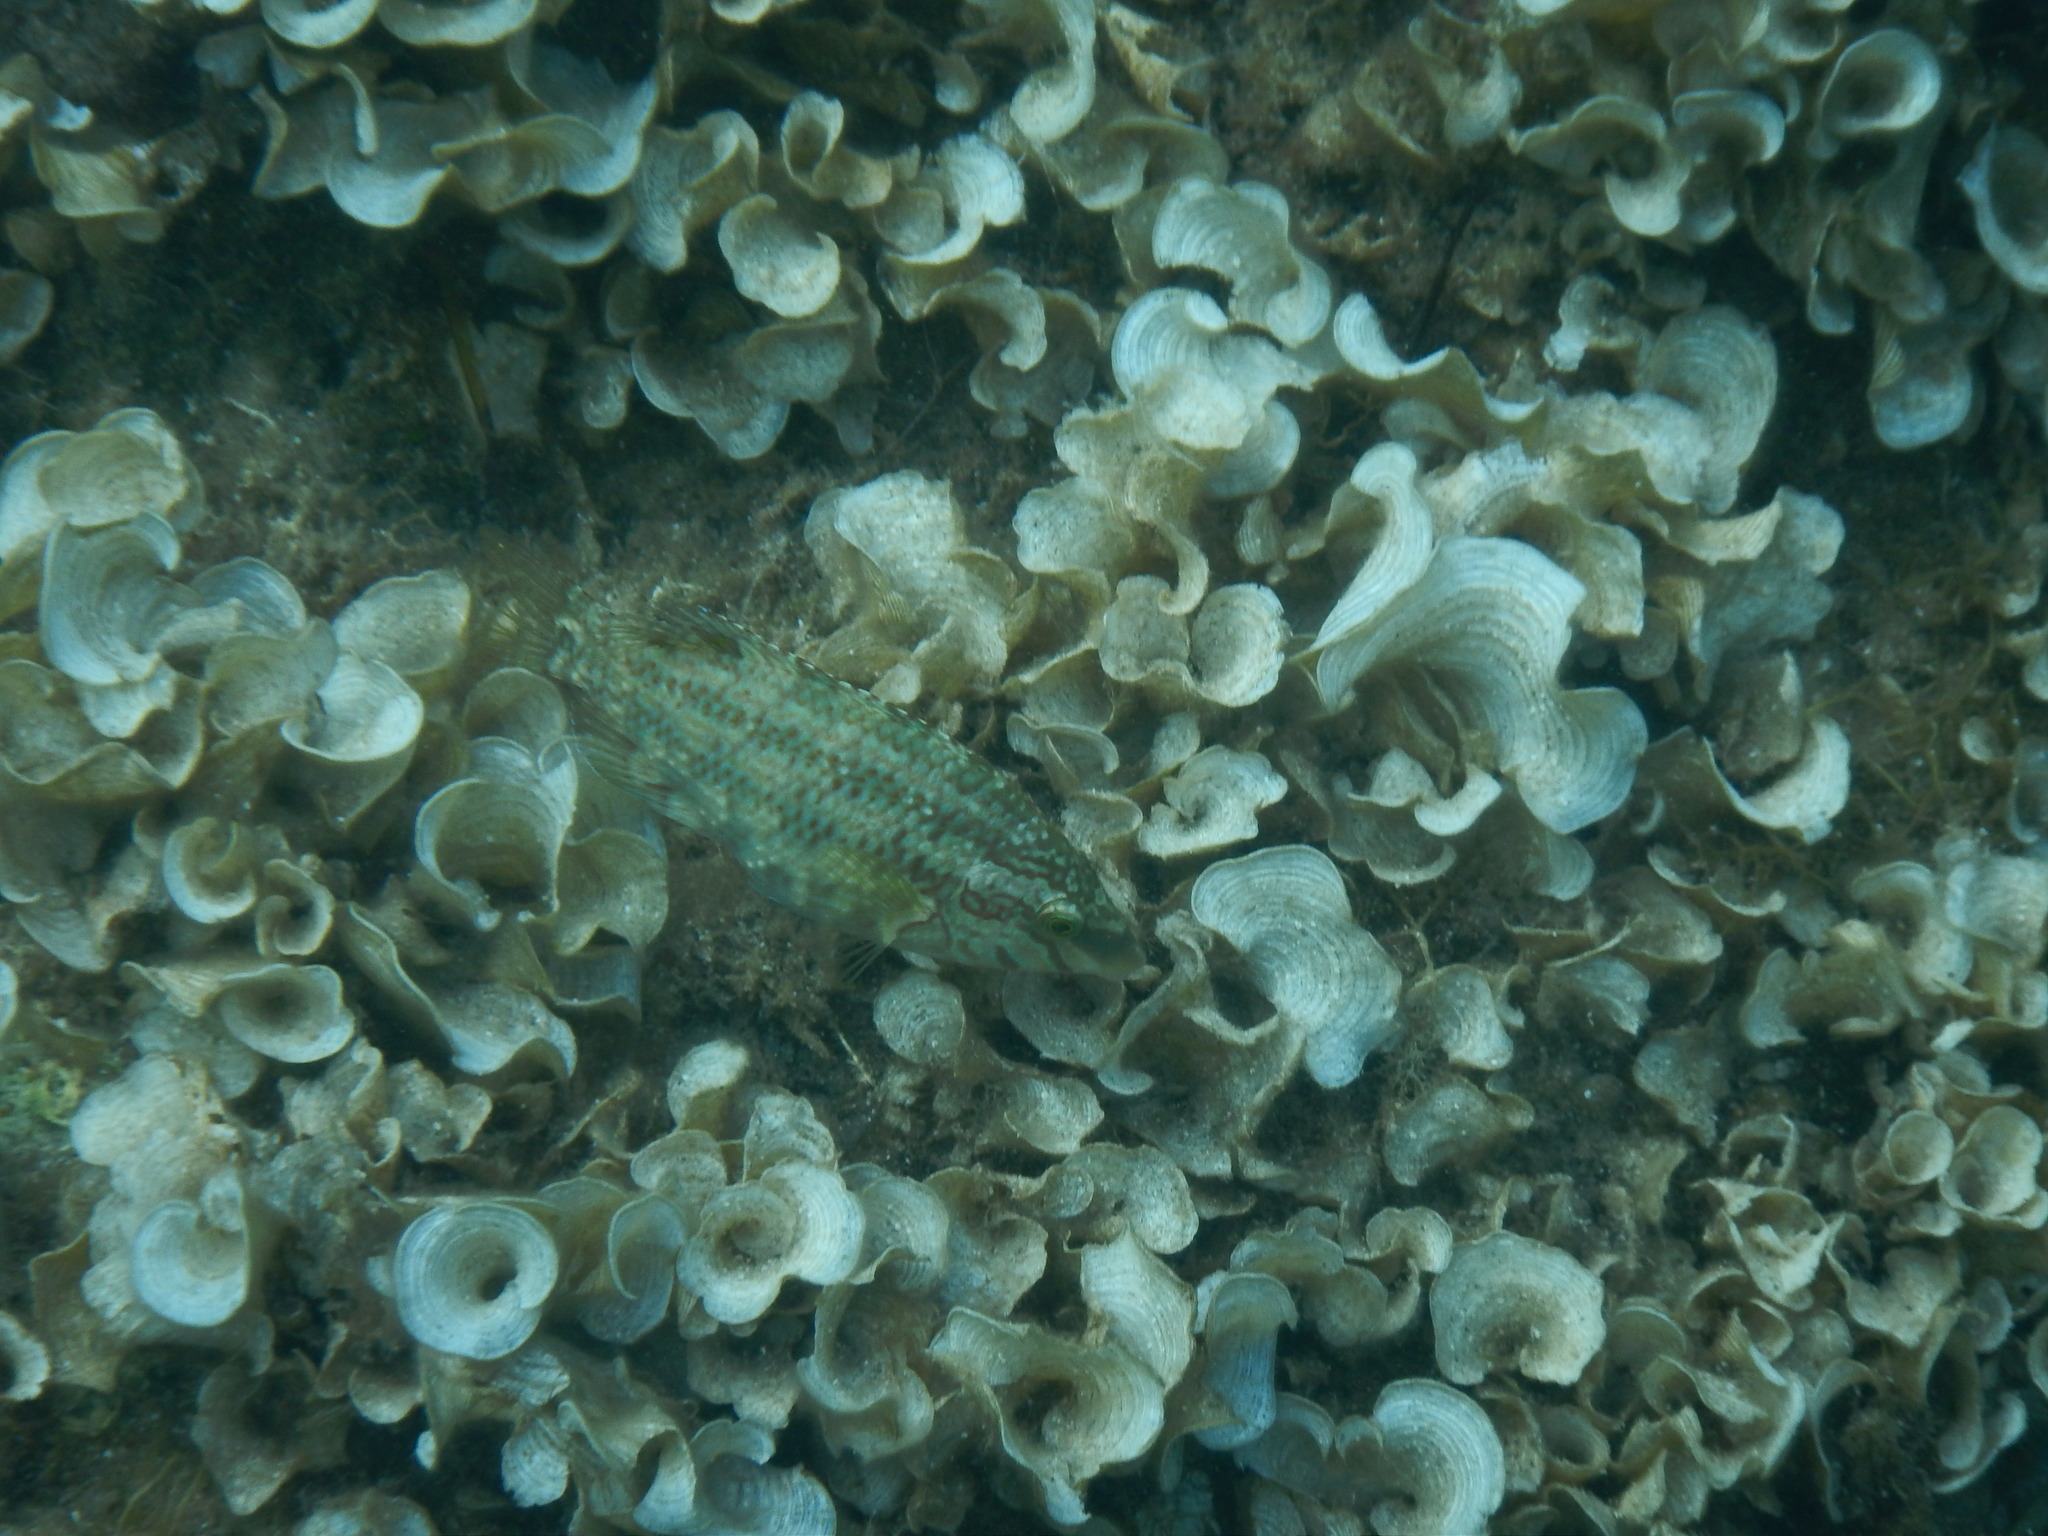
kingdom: Animalia
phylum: Chordata
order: Perciformes
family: Labridae
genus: Symphodus
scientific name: Symphodus roissali
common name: Five-spotted wrasse
